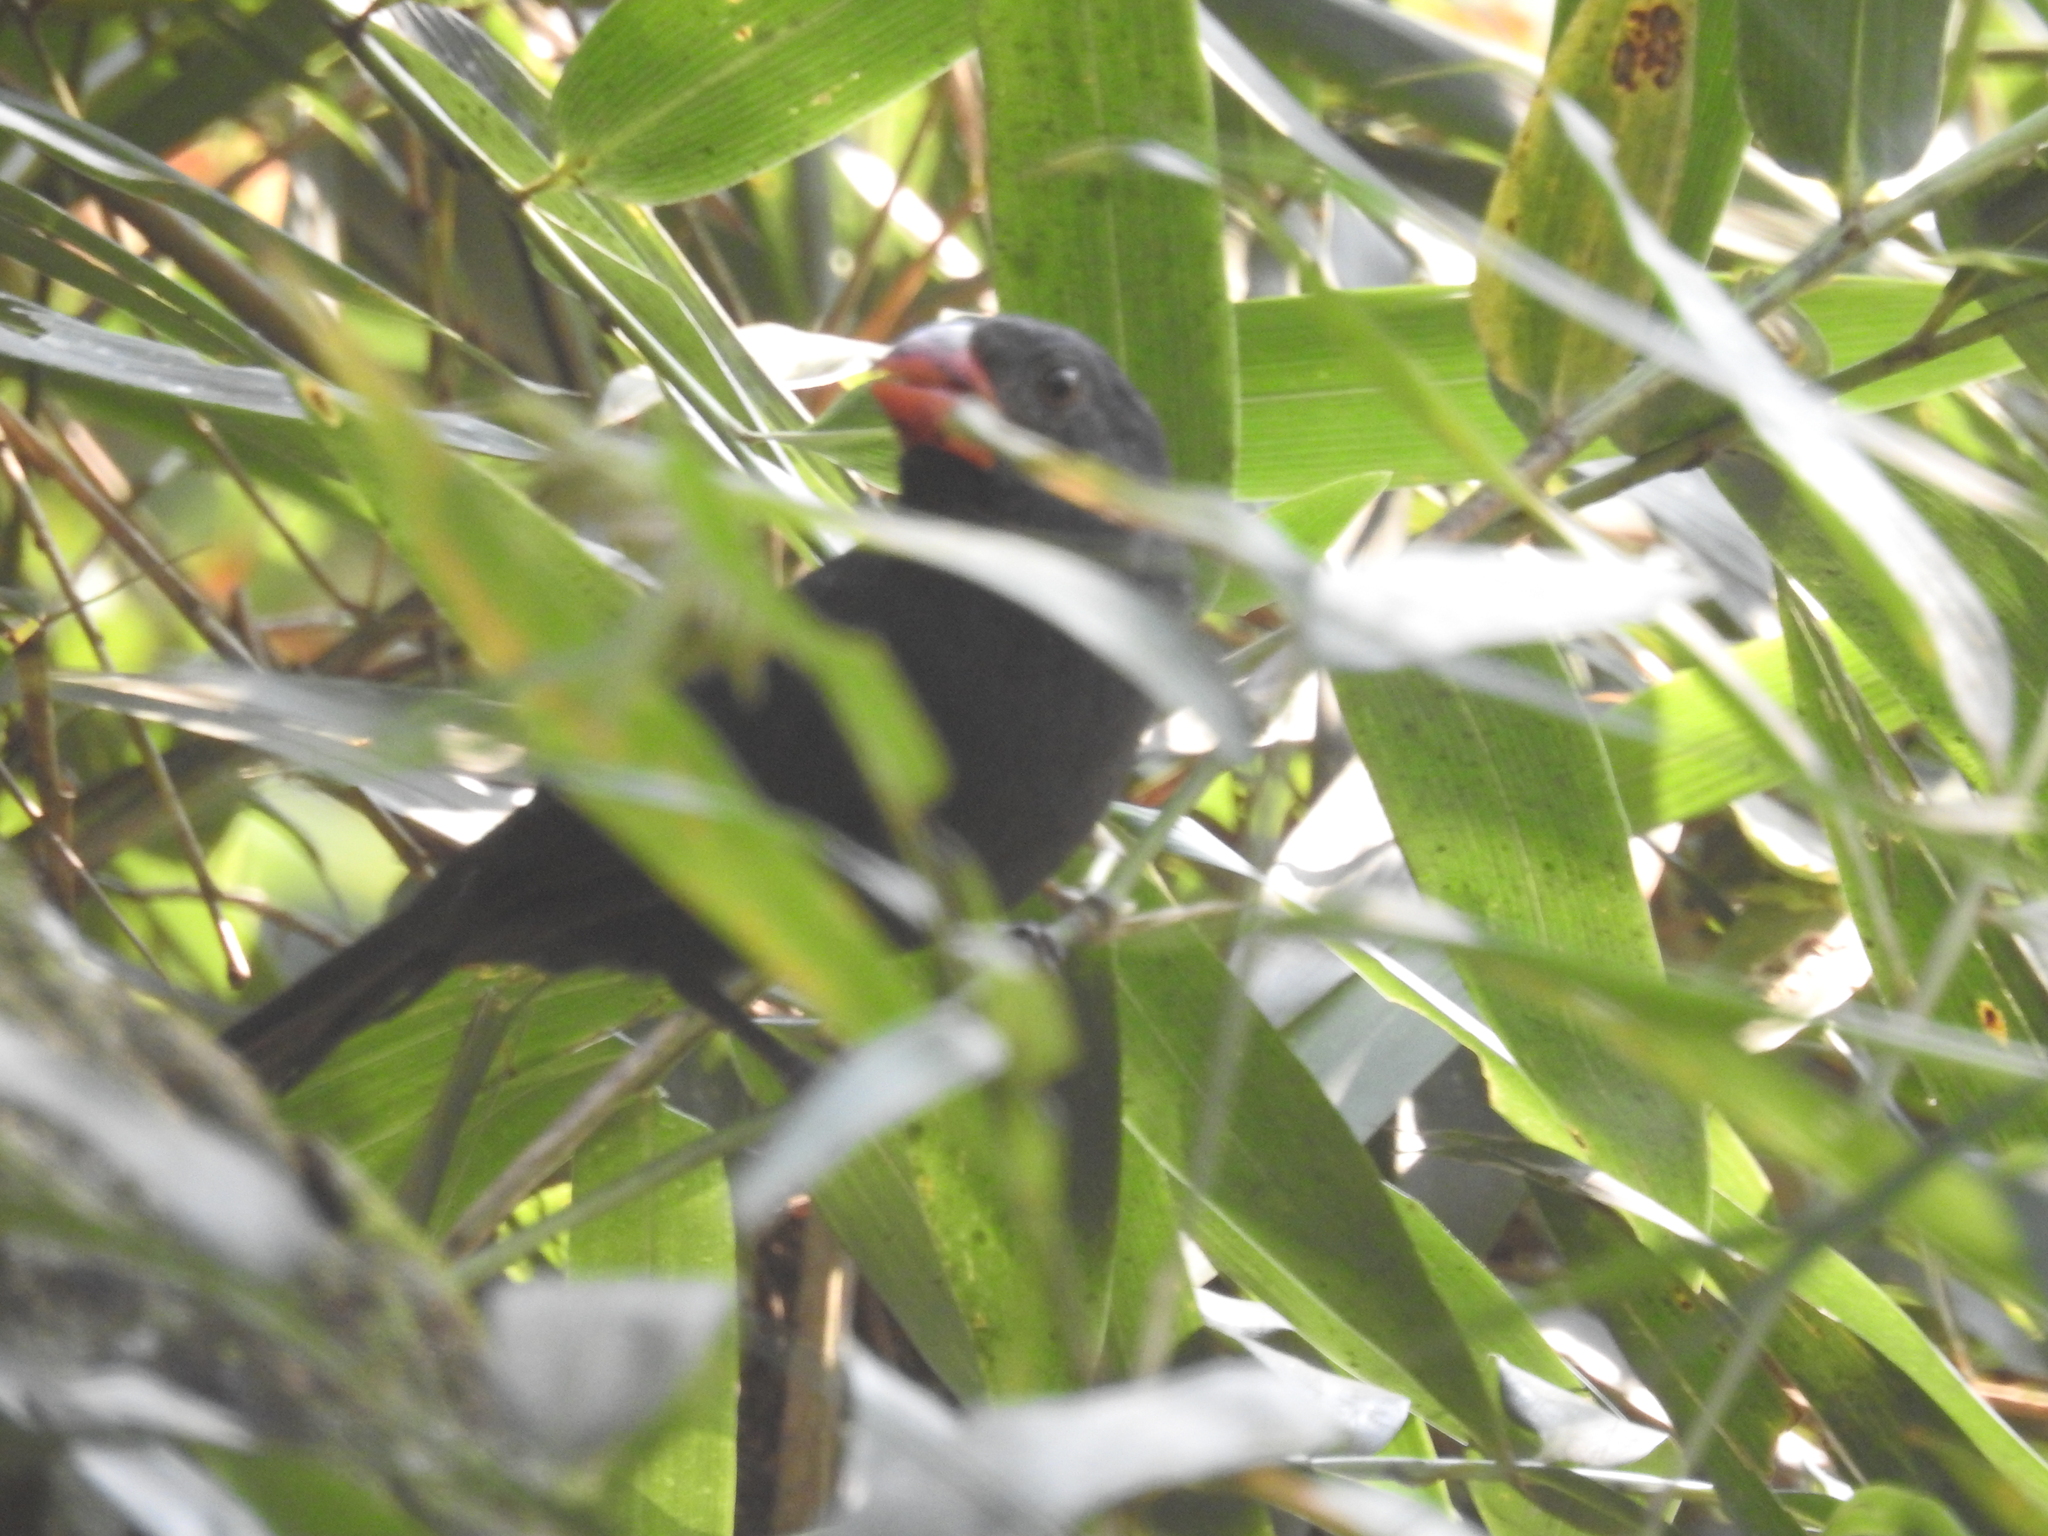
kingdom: Animalia
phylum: Chordata
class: Aves
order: Passeriformes
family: Thraupidae
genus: Saltator
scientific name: Saltator fuliginosus
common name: Black-throated grosbeak
